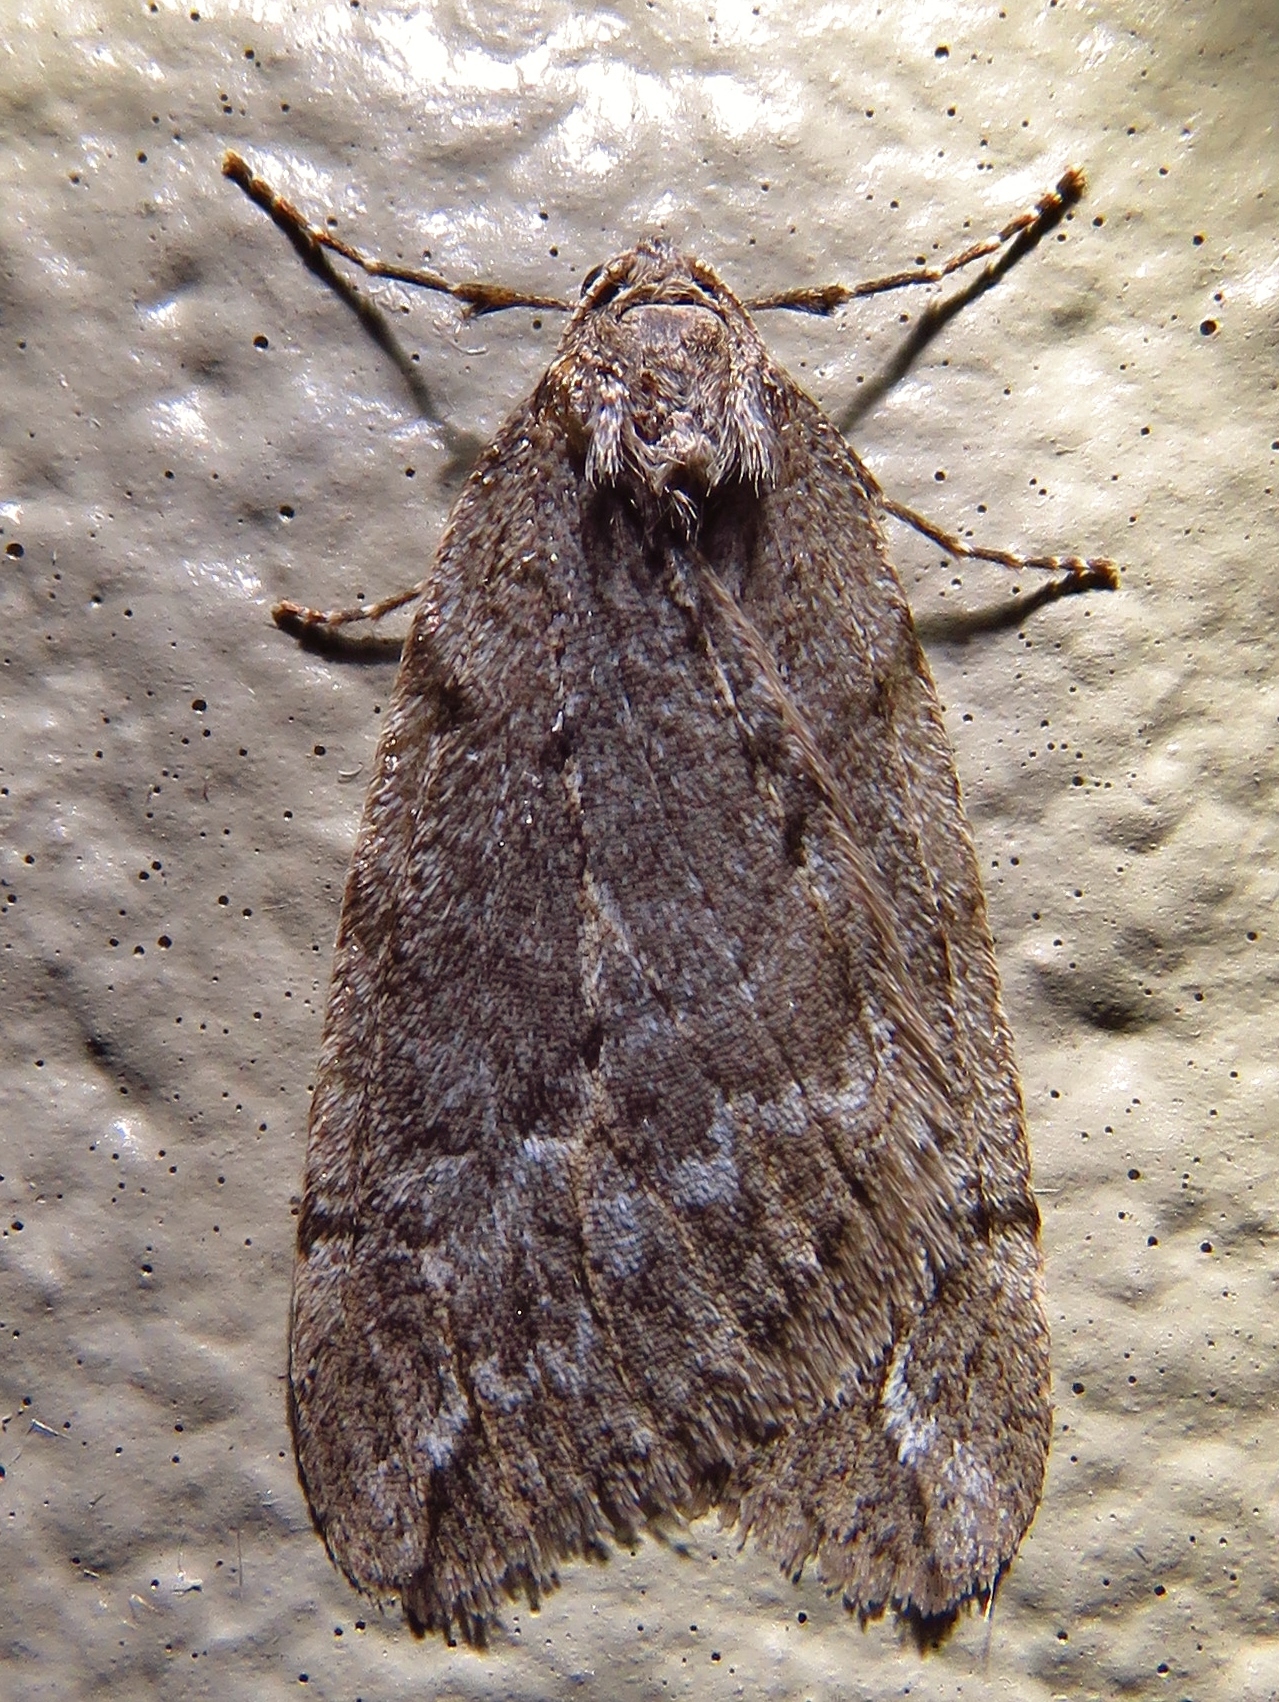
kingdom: Animalia
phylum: Arthropoda
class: Insecta
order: Lepidoptera
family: Geometridae
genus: Paleacrita
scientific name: Paleacrita vernata
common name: Spring cankerworm
